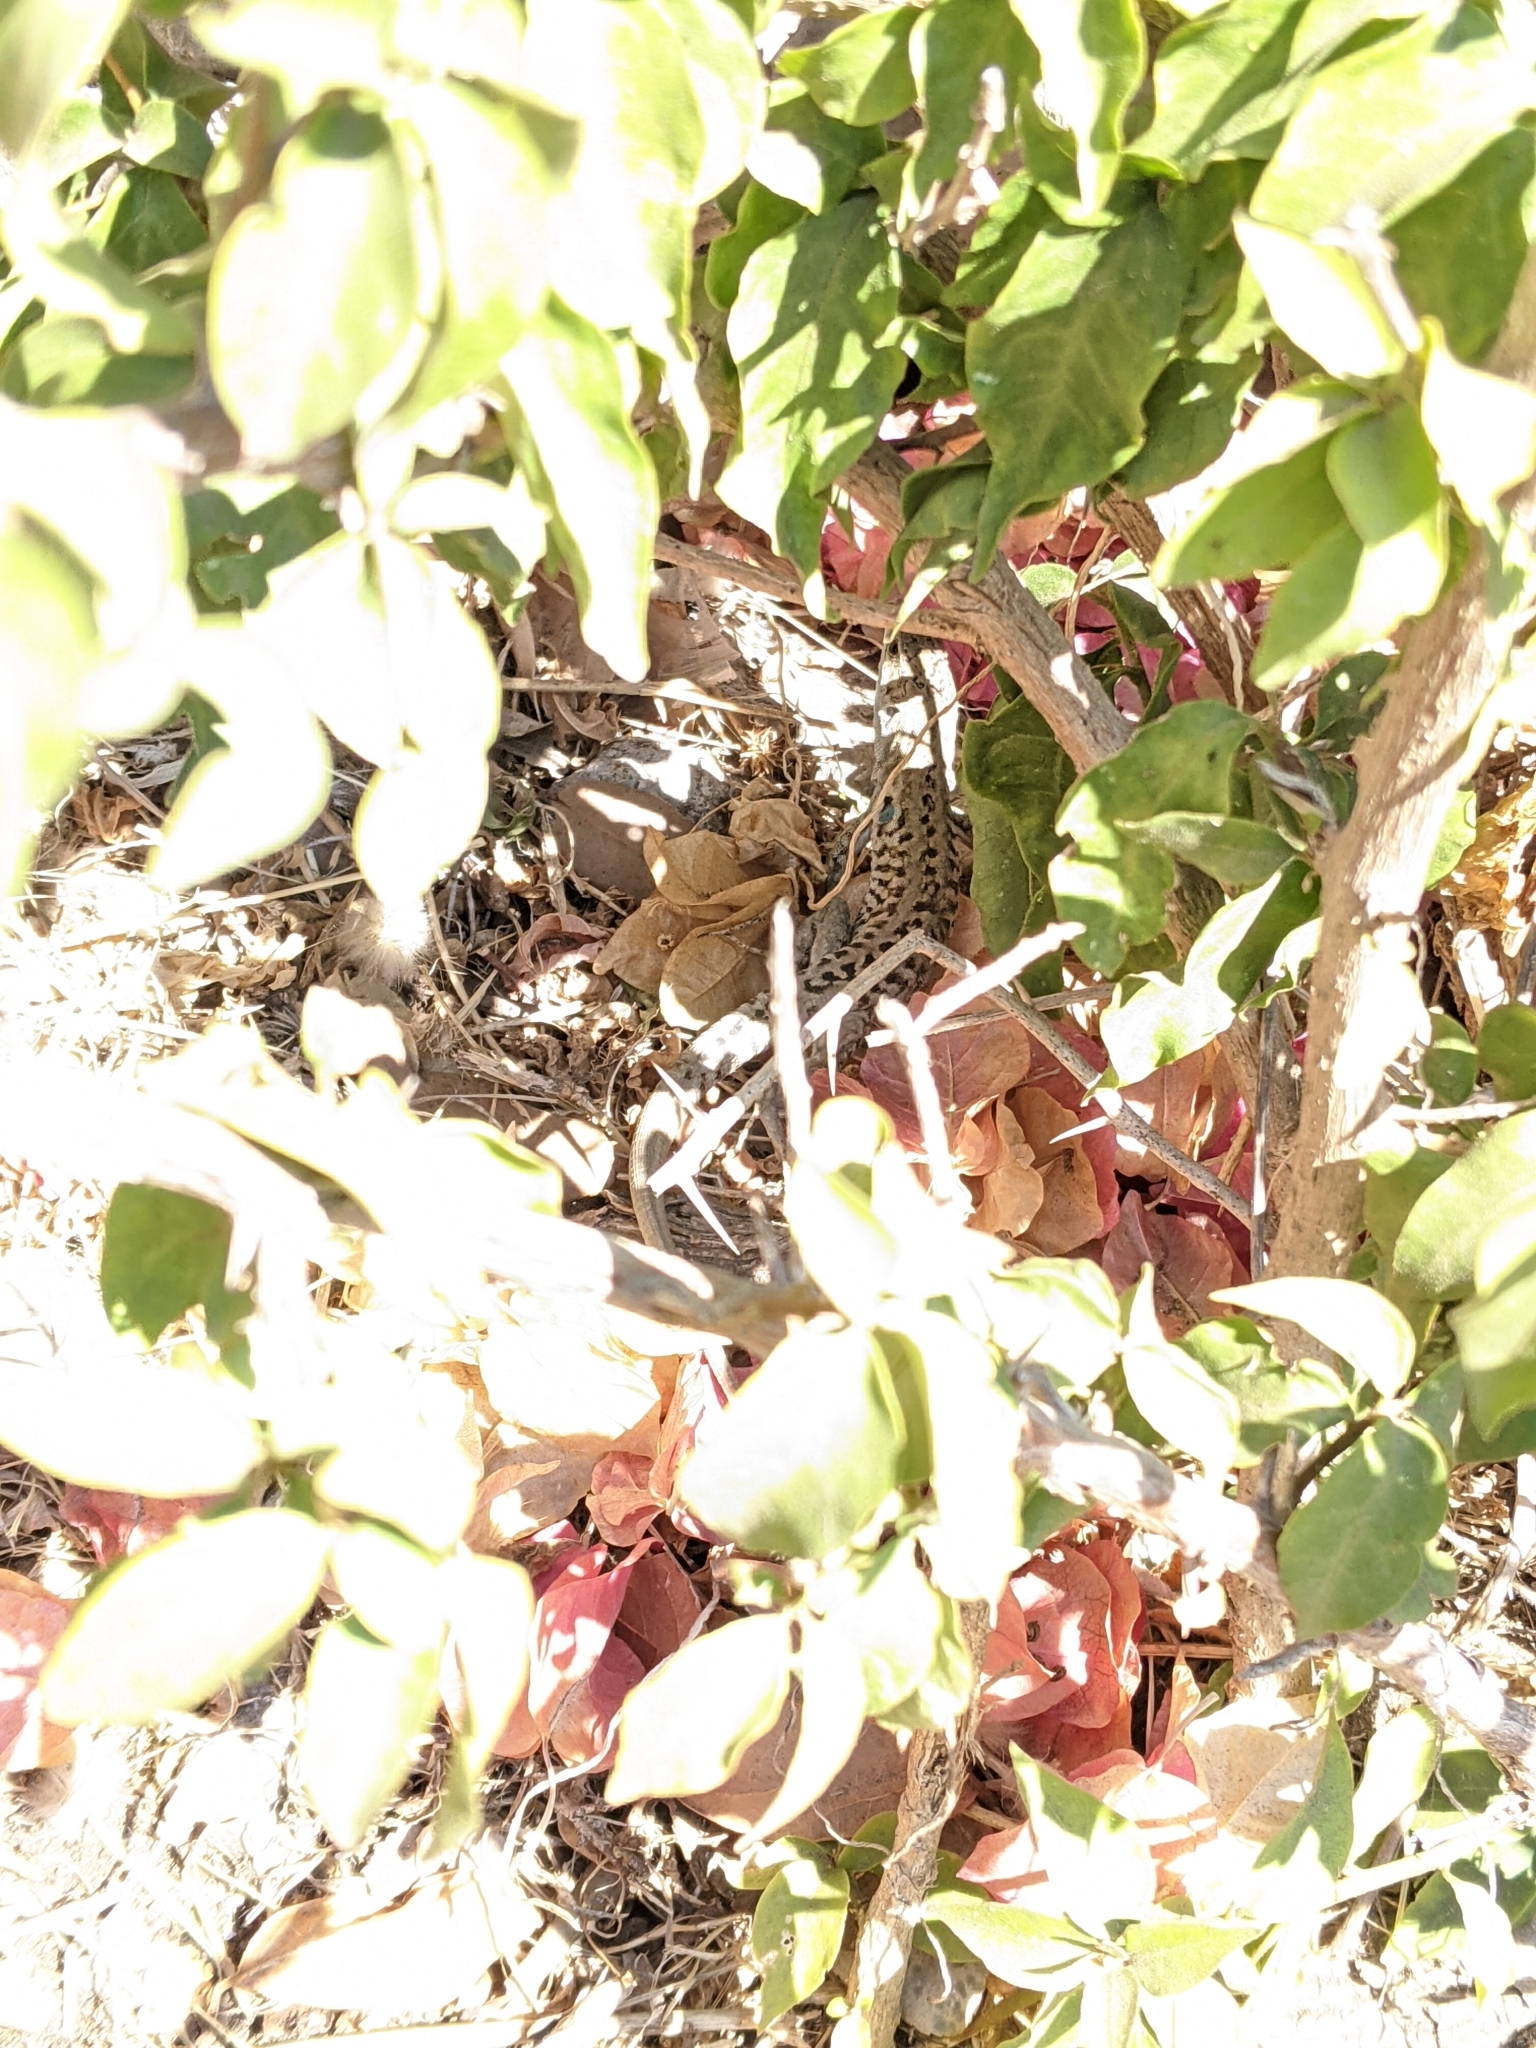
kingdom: Animalia
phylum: Chordata
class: Squamata
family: Lacertidae
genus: Podarcis
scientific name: Podarcis siculus
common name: Italian wall lizard
